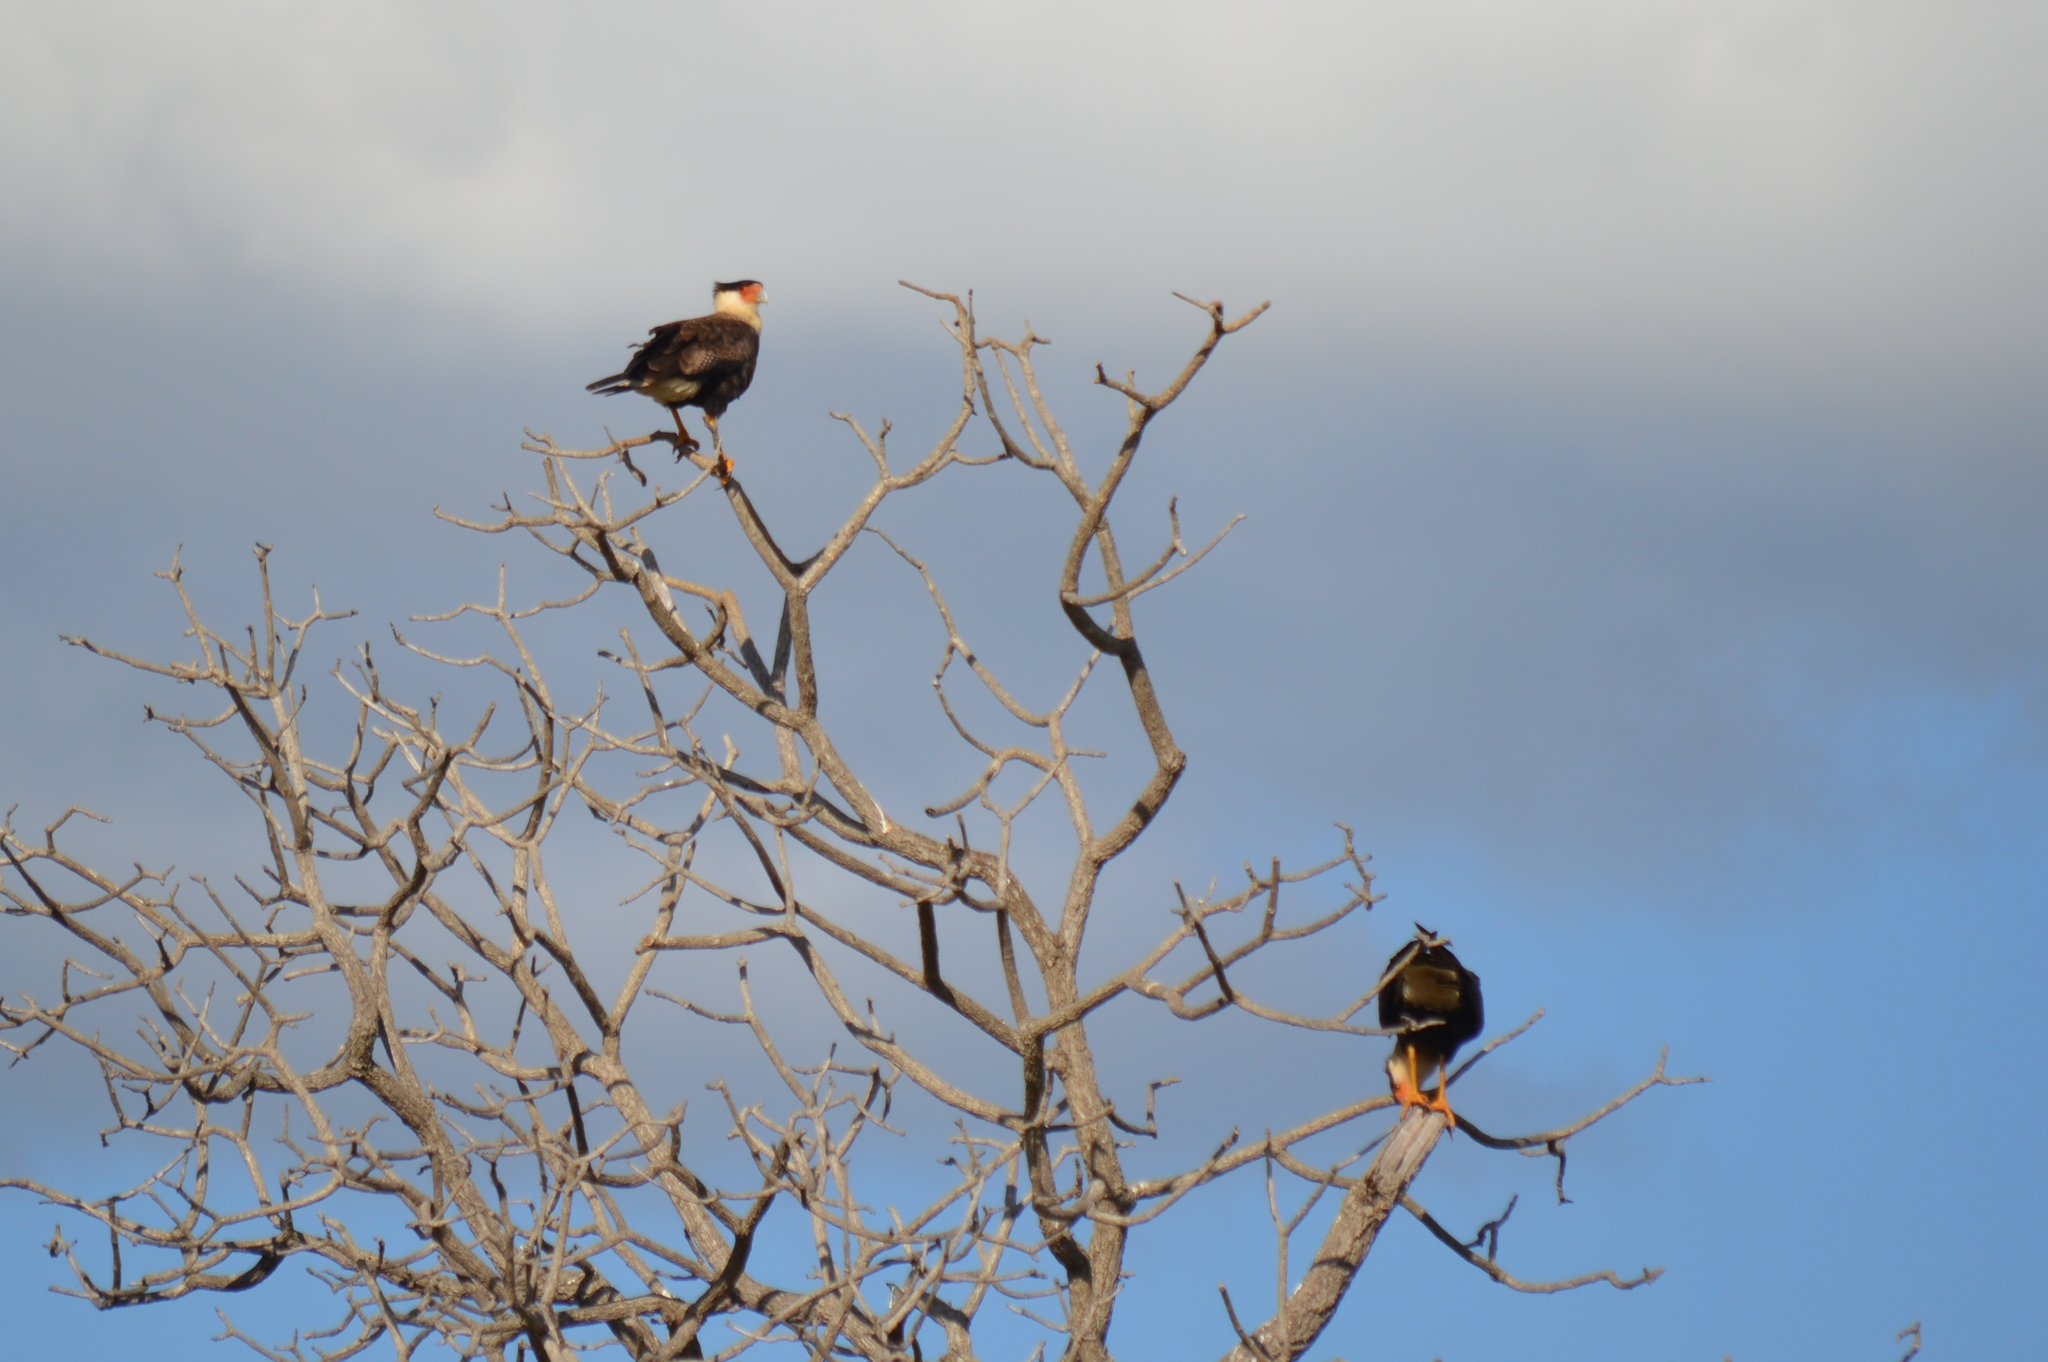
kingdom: Animalia
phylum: Chordata
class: Aves
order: Falconiformes
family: Falconidae
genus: Caracara
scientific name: Caracara plancus
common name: Southern caracara
